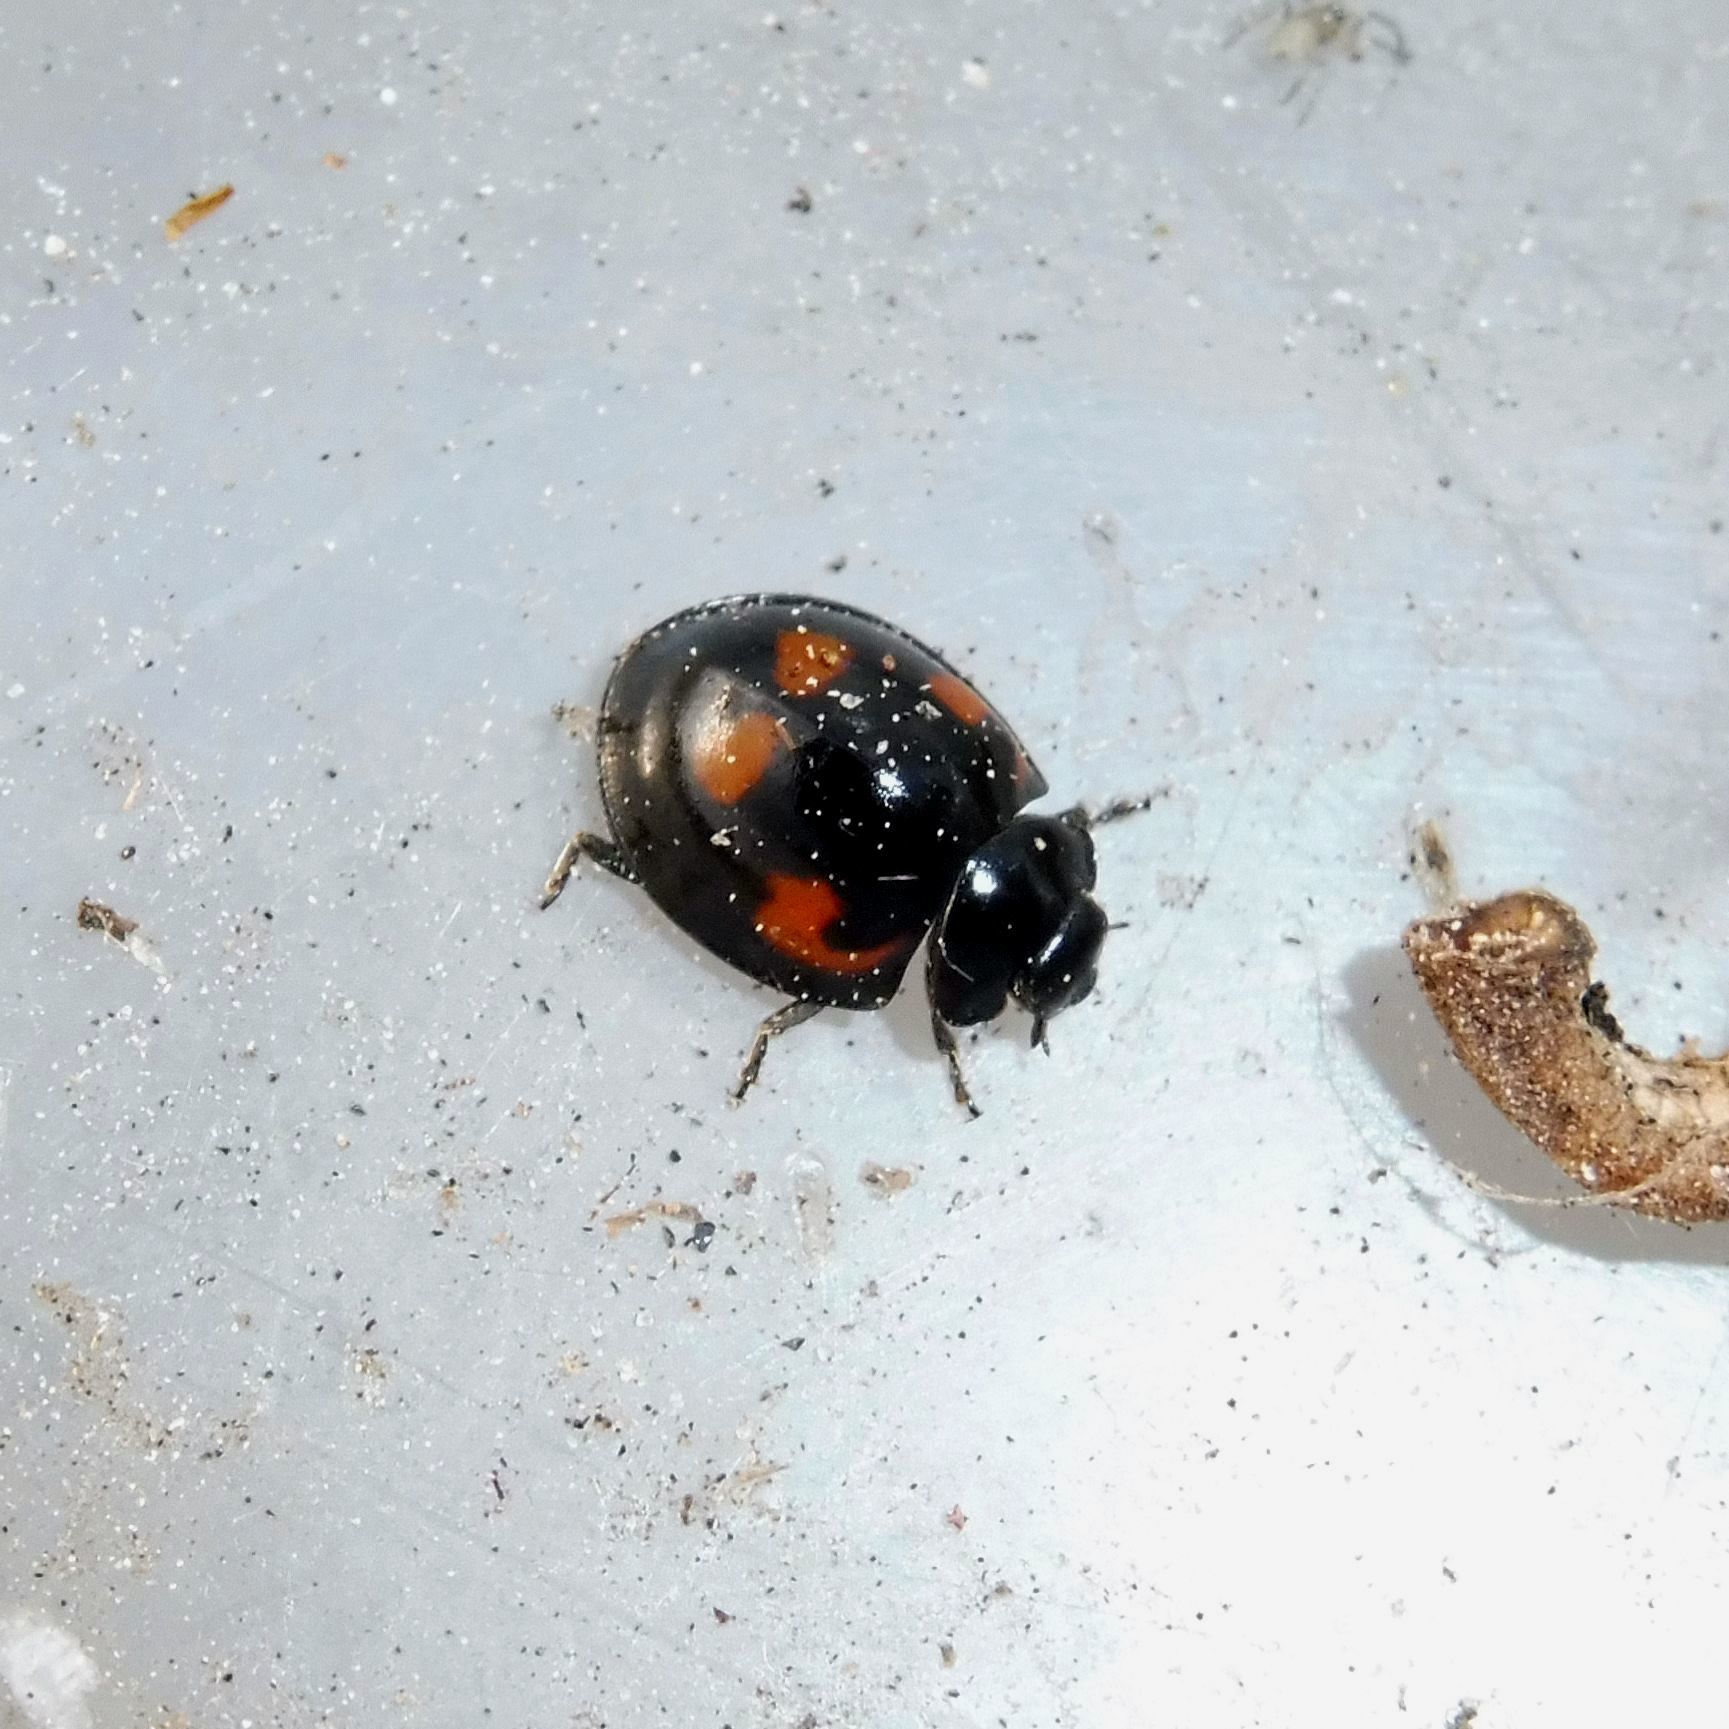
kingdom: Animalia
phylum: Arthropoda
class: Insecta
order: Coleoptera
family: Coccinellidae
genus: Brumus
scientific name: Brumus quadripustulatus
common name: Ladybird beetle
